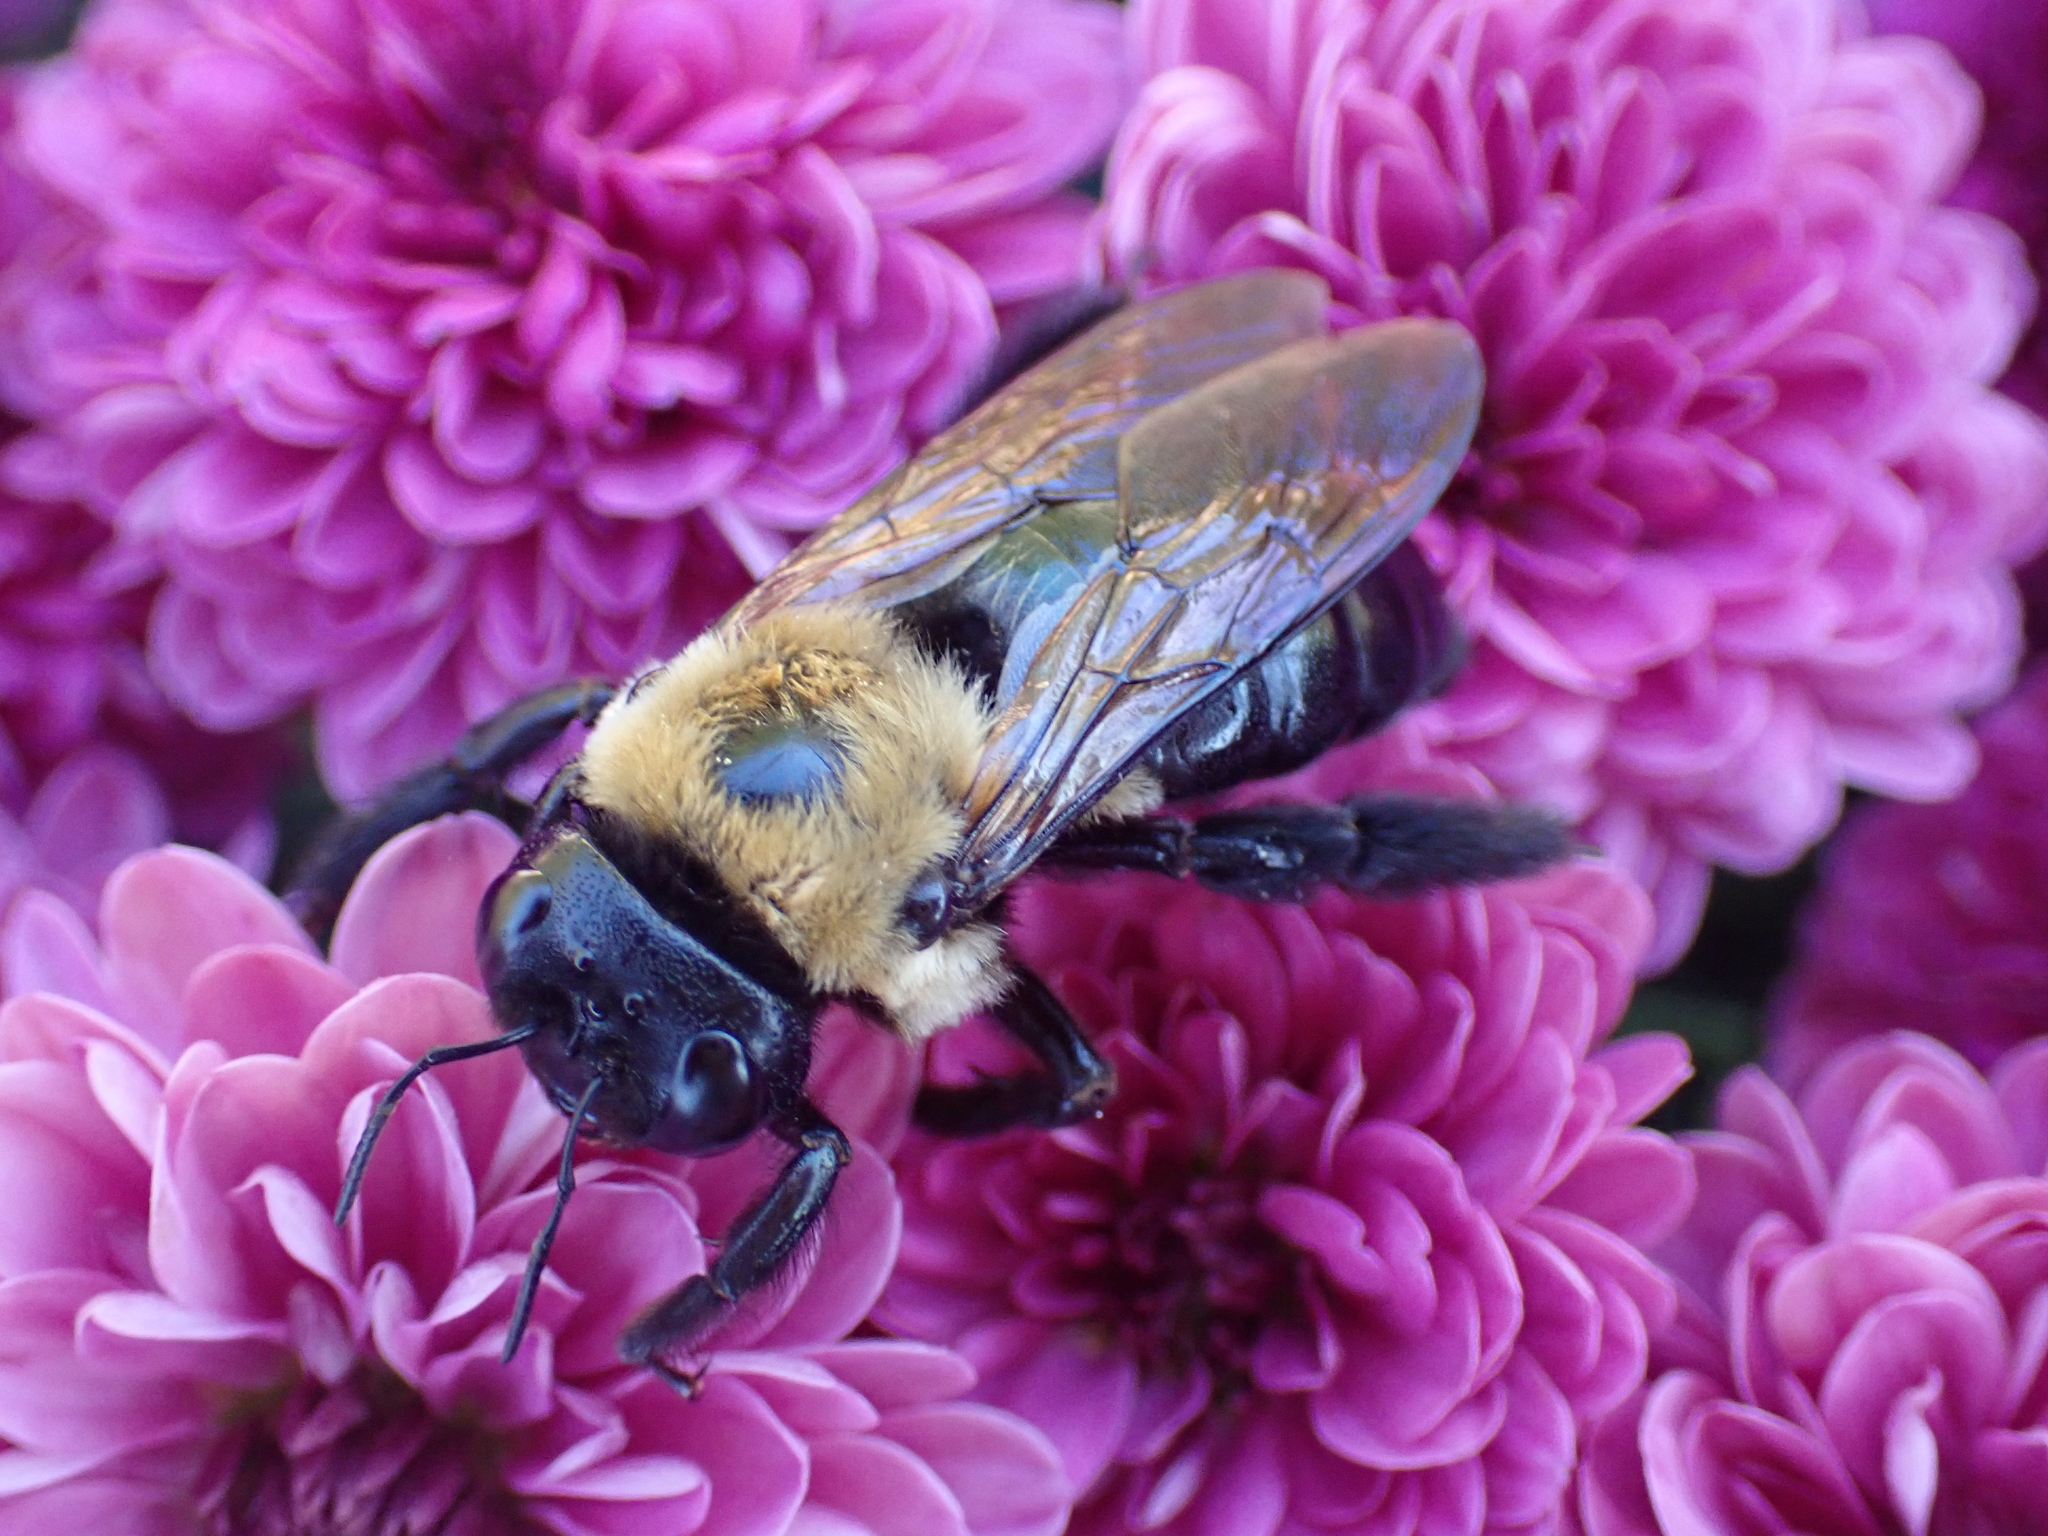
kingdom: Animalia
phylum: Arthropoda
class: Insecta
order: Hymenoptera
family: Apidae
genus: Xylocopa
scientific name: Xylocopa virginica
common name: Carpenter bee
